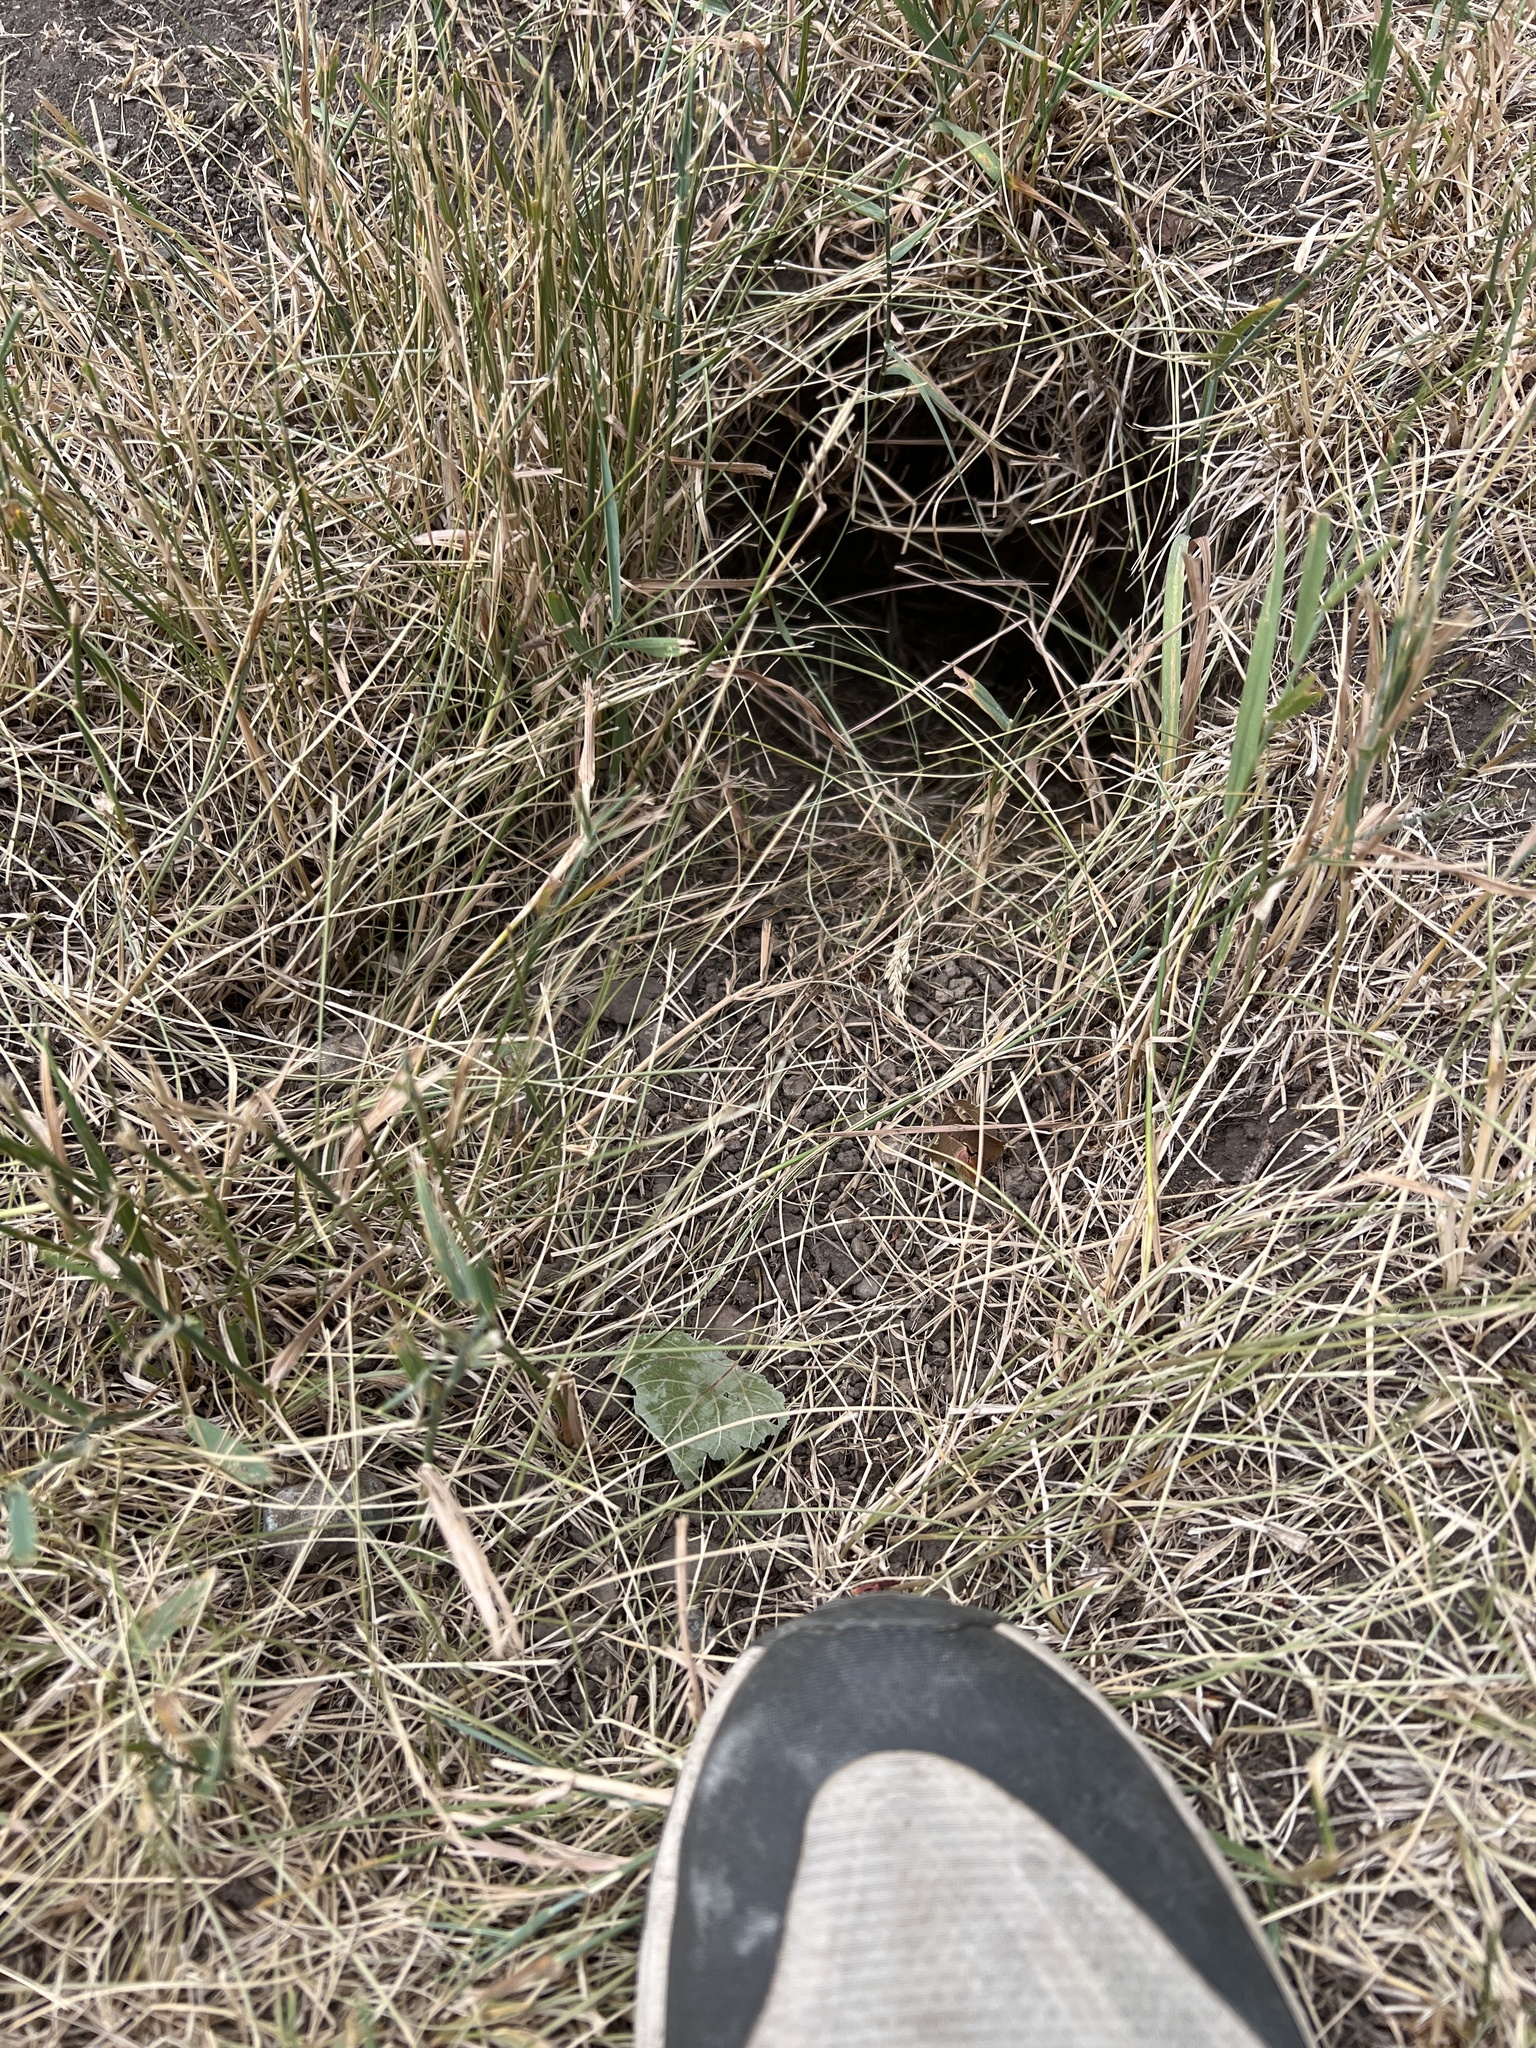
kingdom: Animalia
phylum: Chordata
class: Mammalia
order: Rodentia
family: Sciuridae
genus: Urocitellus
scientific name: Urocitellus columbianus
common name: Columbian ground squirrel
